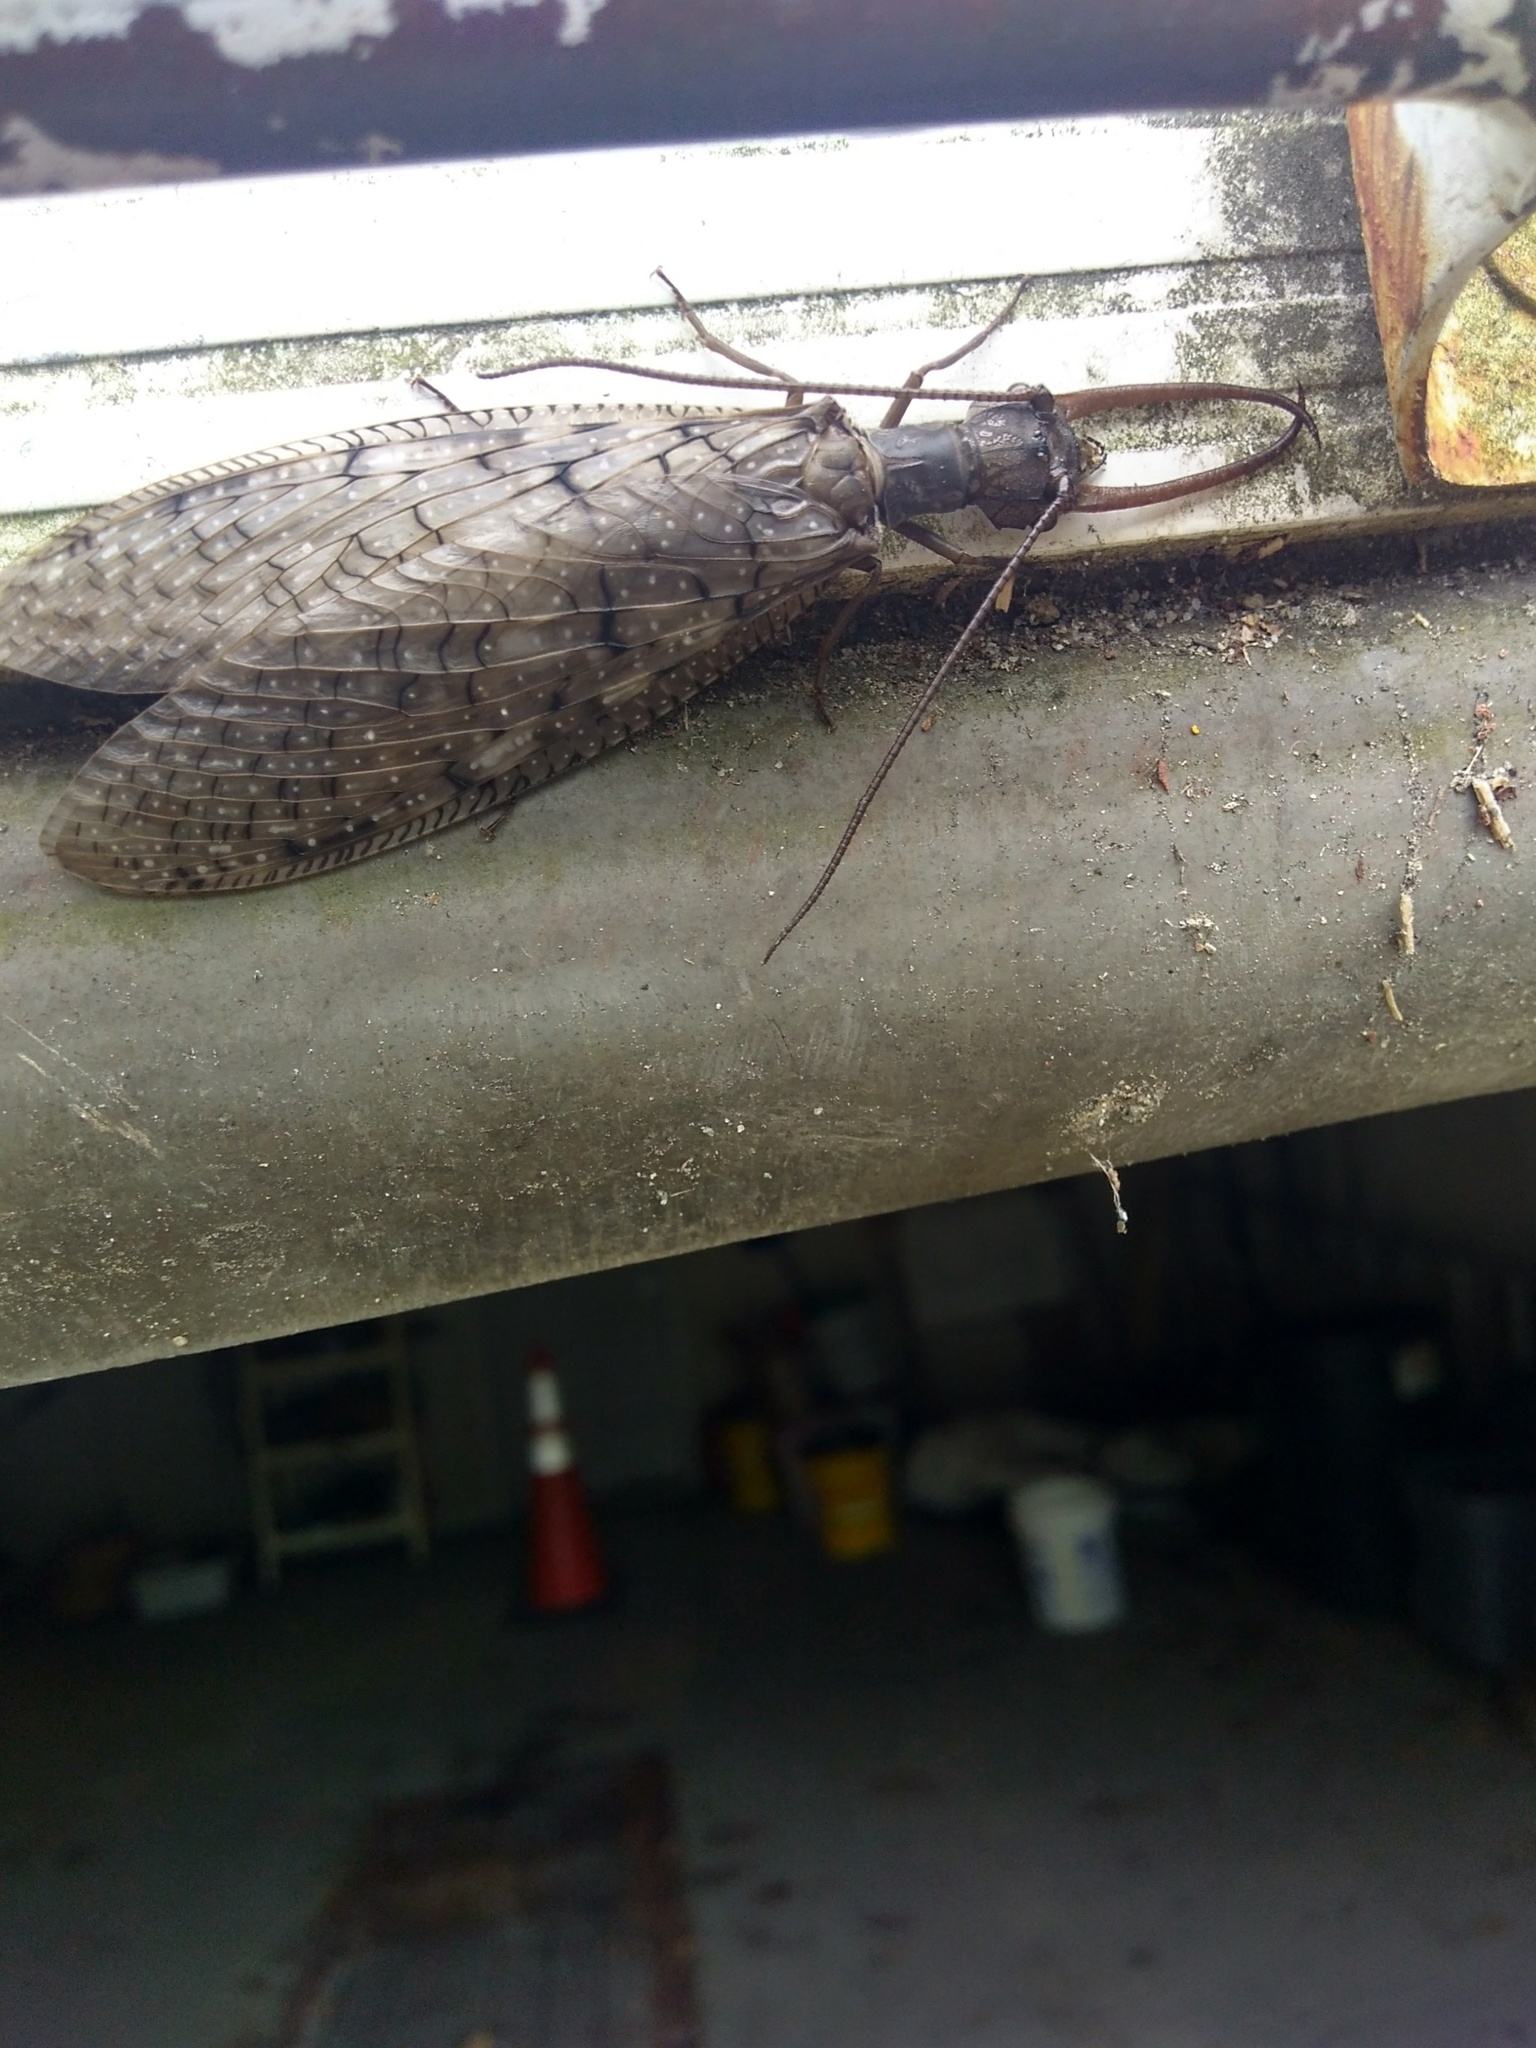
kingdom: Animalia
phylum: Arthropoda
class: Insecta
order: Megaloptera
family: Corydalidae
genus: Corydalus
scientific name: Corydalus cornutus
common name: Dobsonfly
